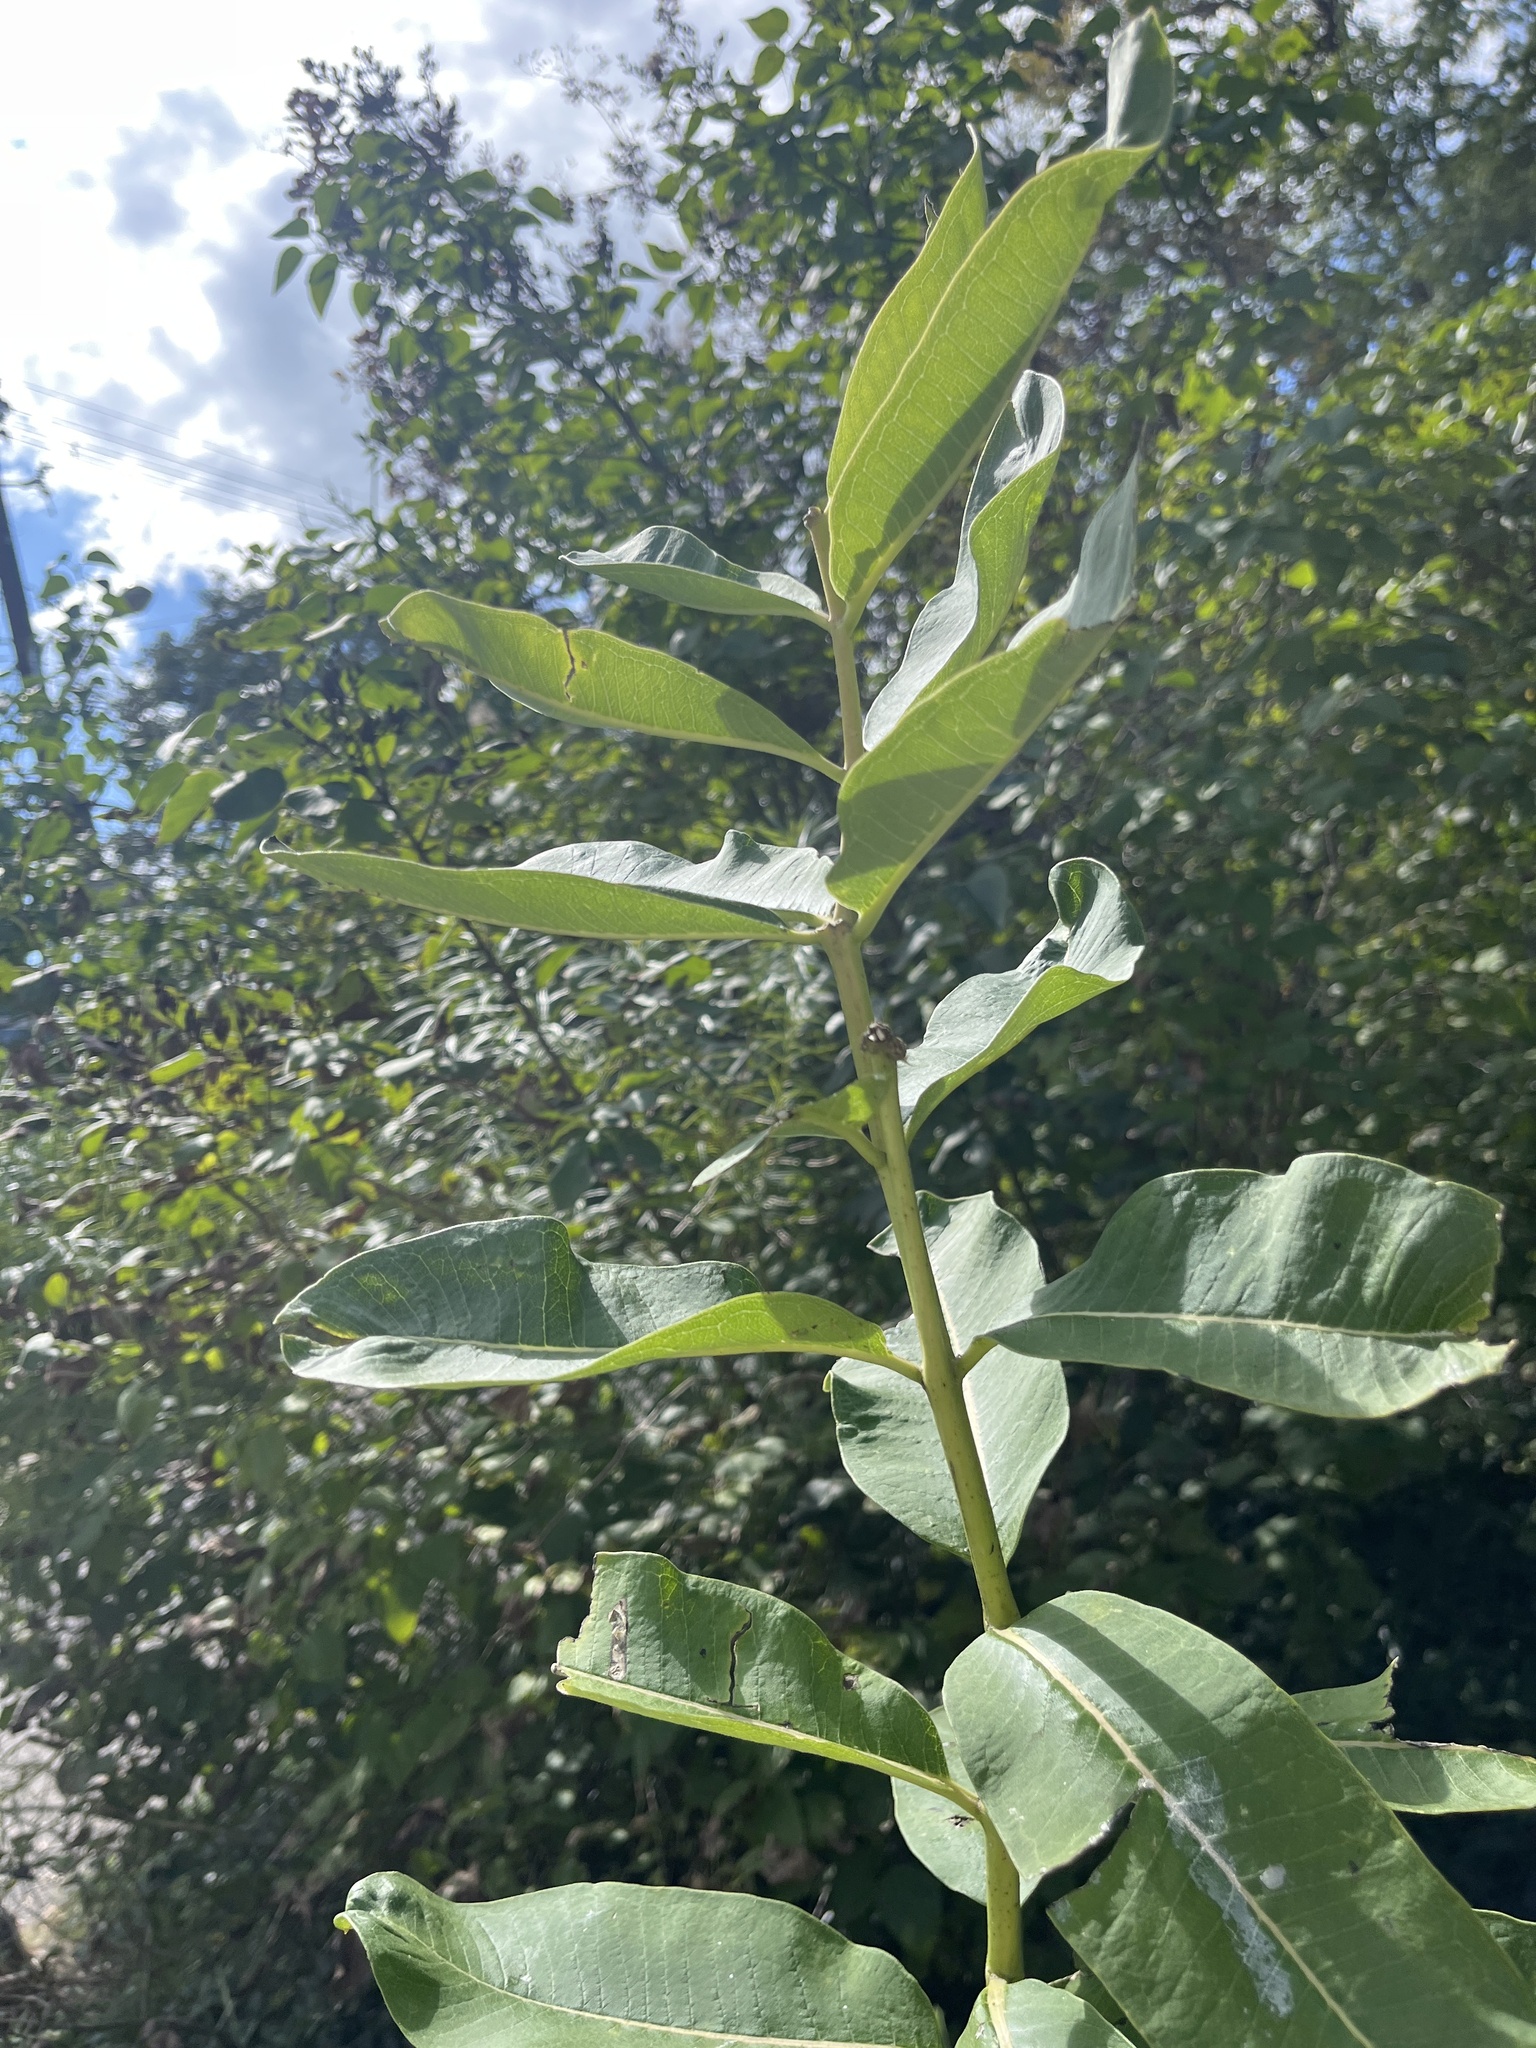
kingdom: Plantae
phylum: Tracheophyta
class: Magnoliopsida
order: Gentianales
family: Apocynaceae
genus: Asclepias
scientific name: Asclepias syriaca
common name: Common milkweed
